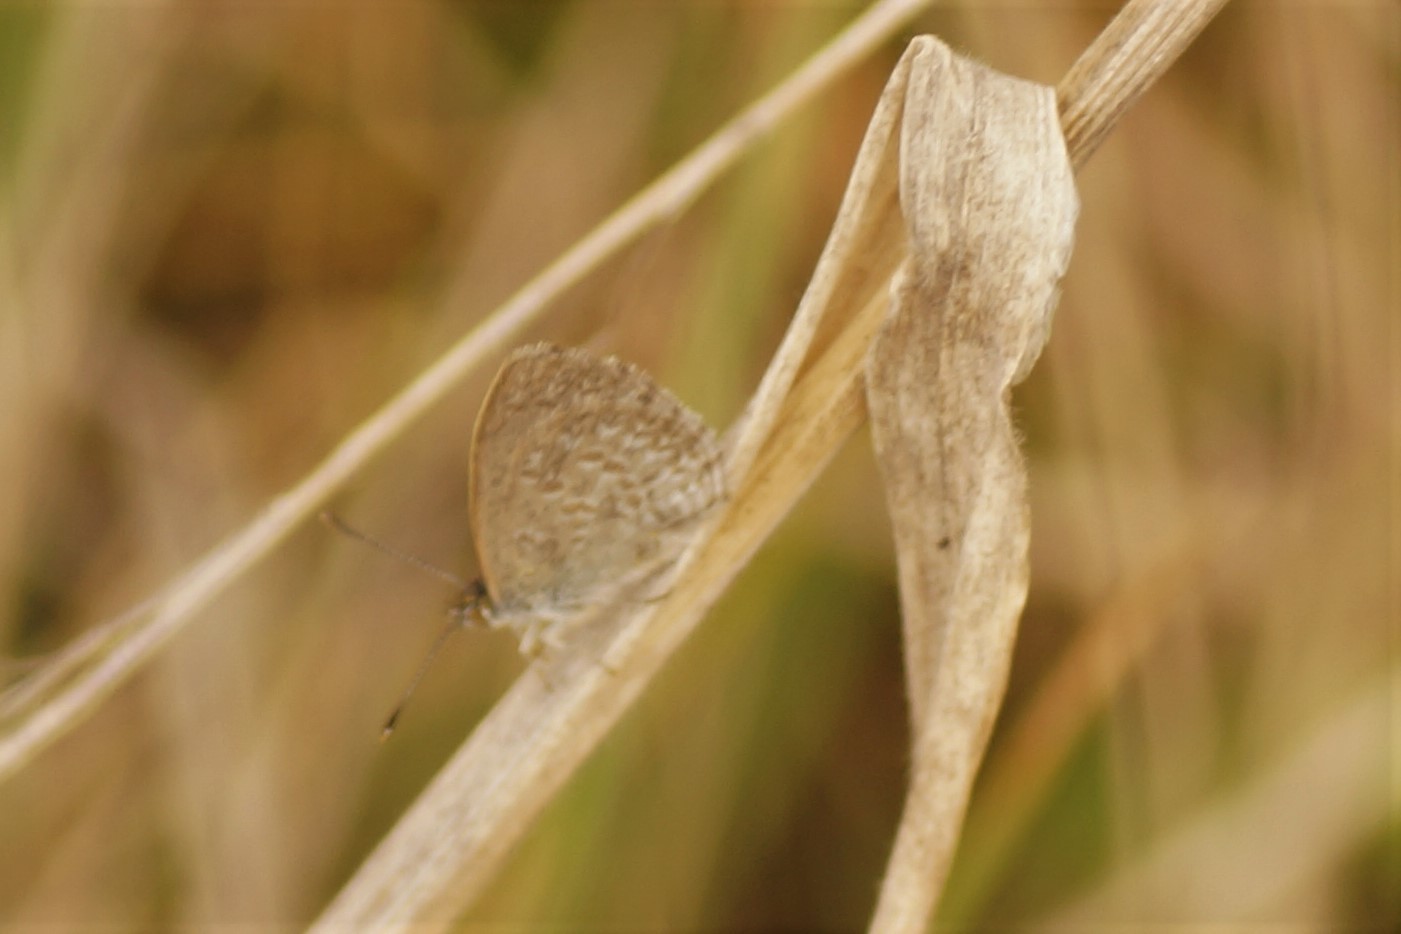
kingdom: Animalia
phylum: Arthropoda
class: Insecta
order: Lepidoptera
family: Lycaenidae
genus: Zizina
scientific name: Zizina labradus
